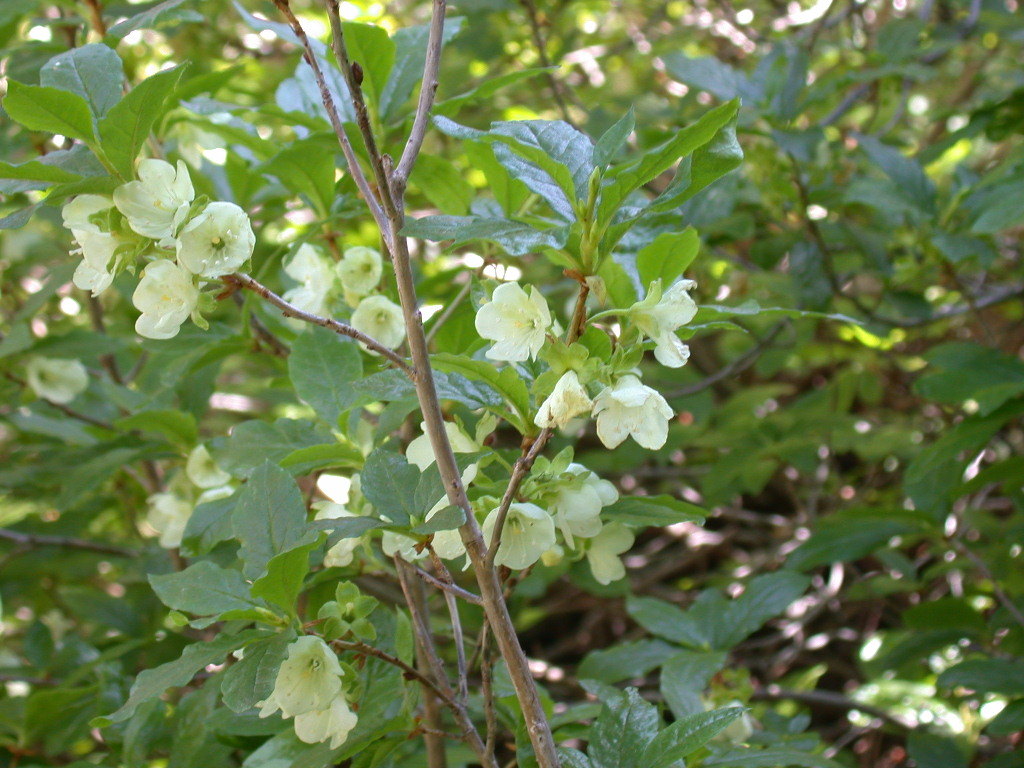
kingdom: Plantae
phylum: Tracheophyta
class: Magnoliopsida
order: Ericales
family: Ericaceae
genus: Rhododendron
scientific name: Rhododendron albiflorum
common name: White rhododendron
